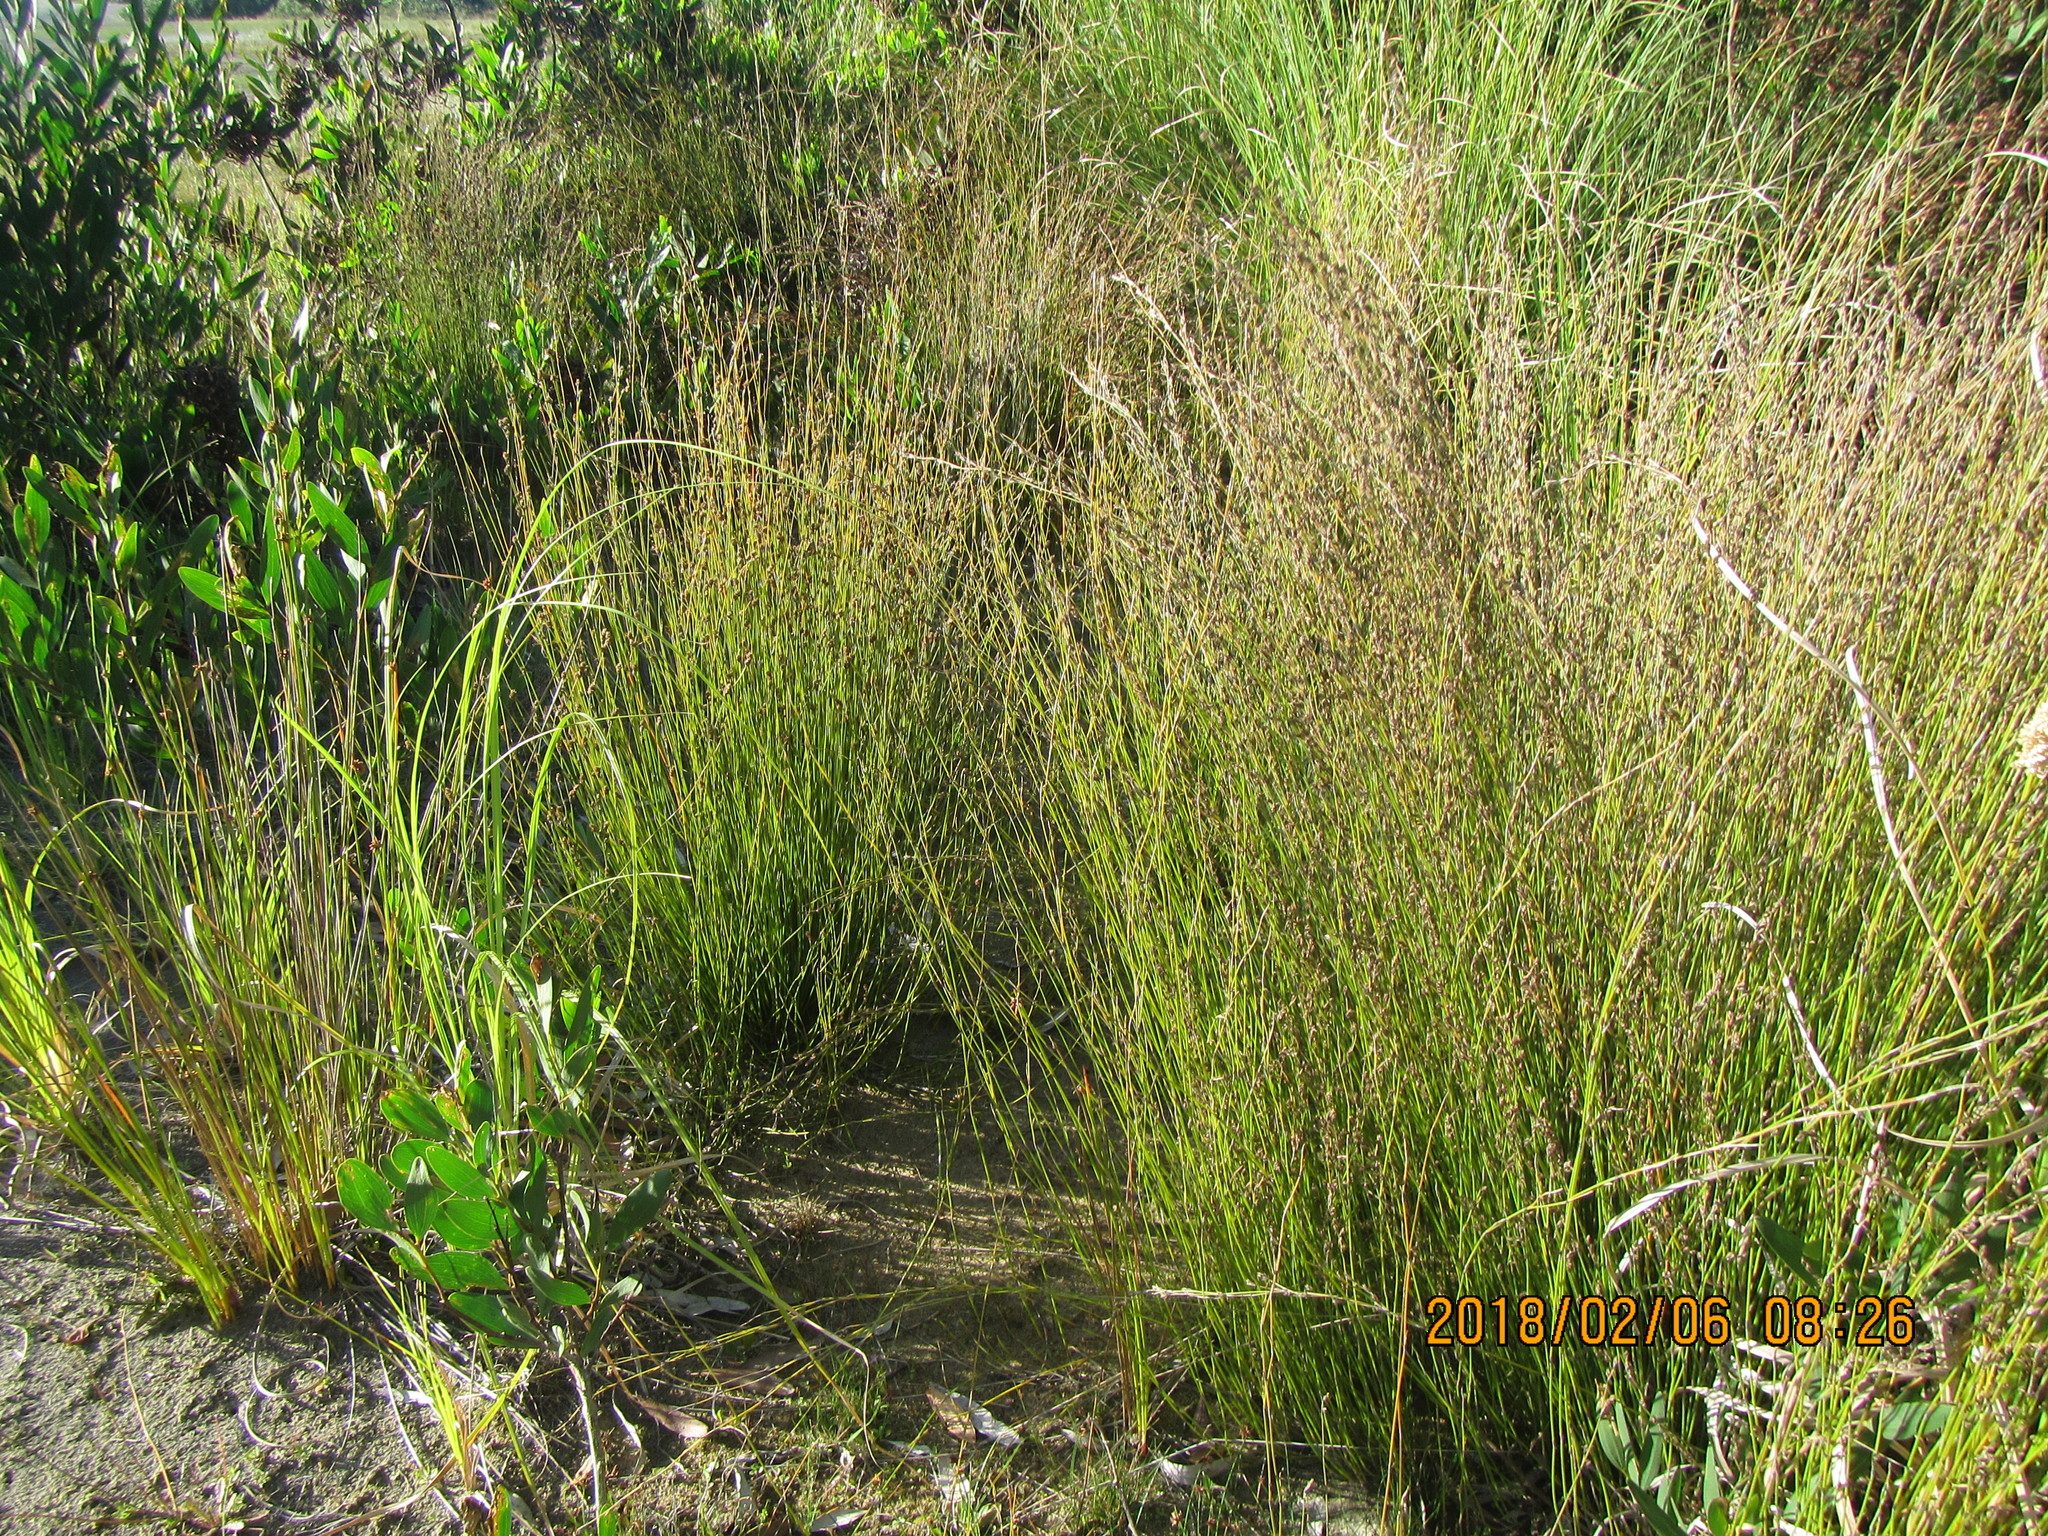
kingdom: Plantae
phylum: Tracheophyta
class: Liliopsida
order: Poales
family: Restionaceae
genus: Apodasmia
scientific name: Apodasmia similis
